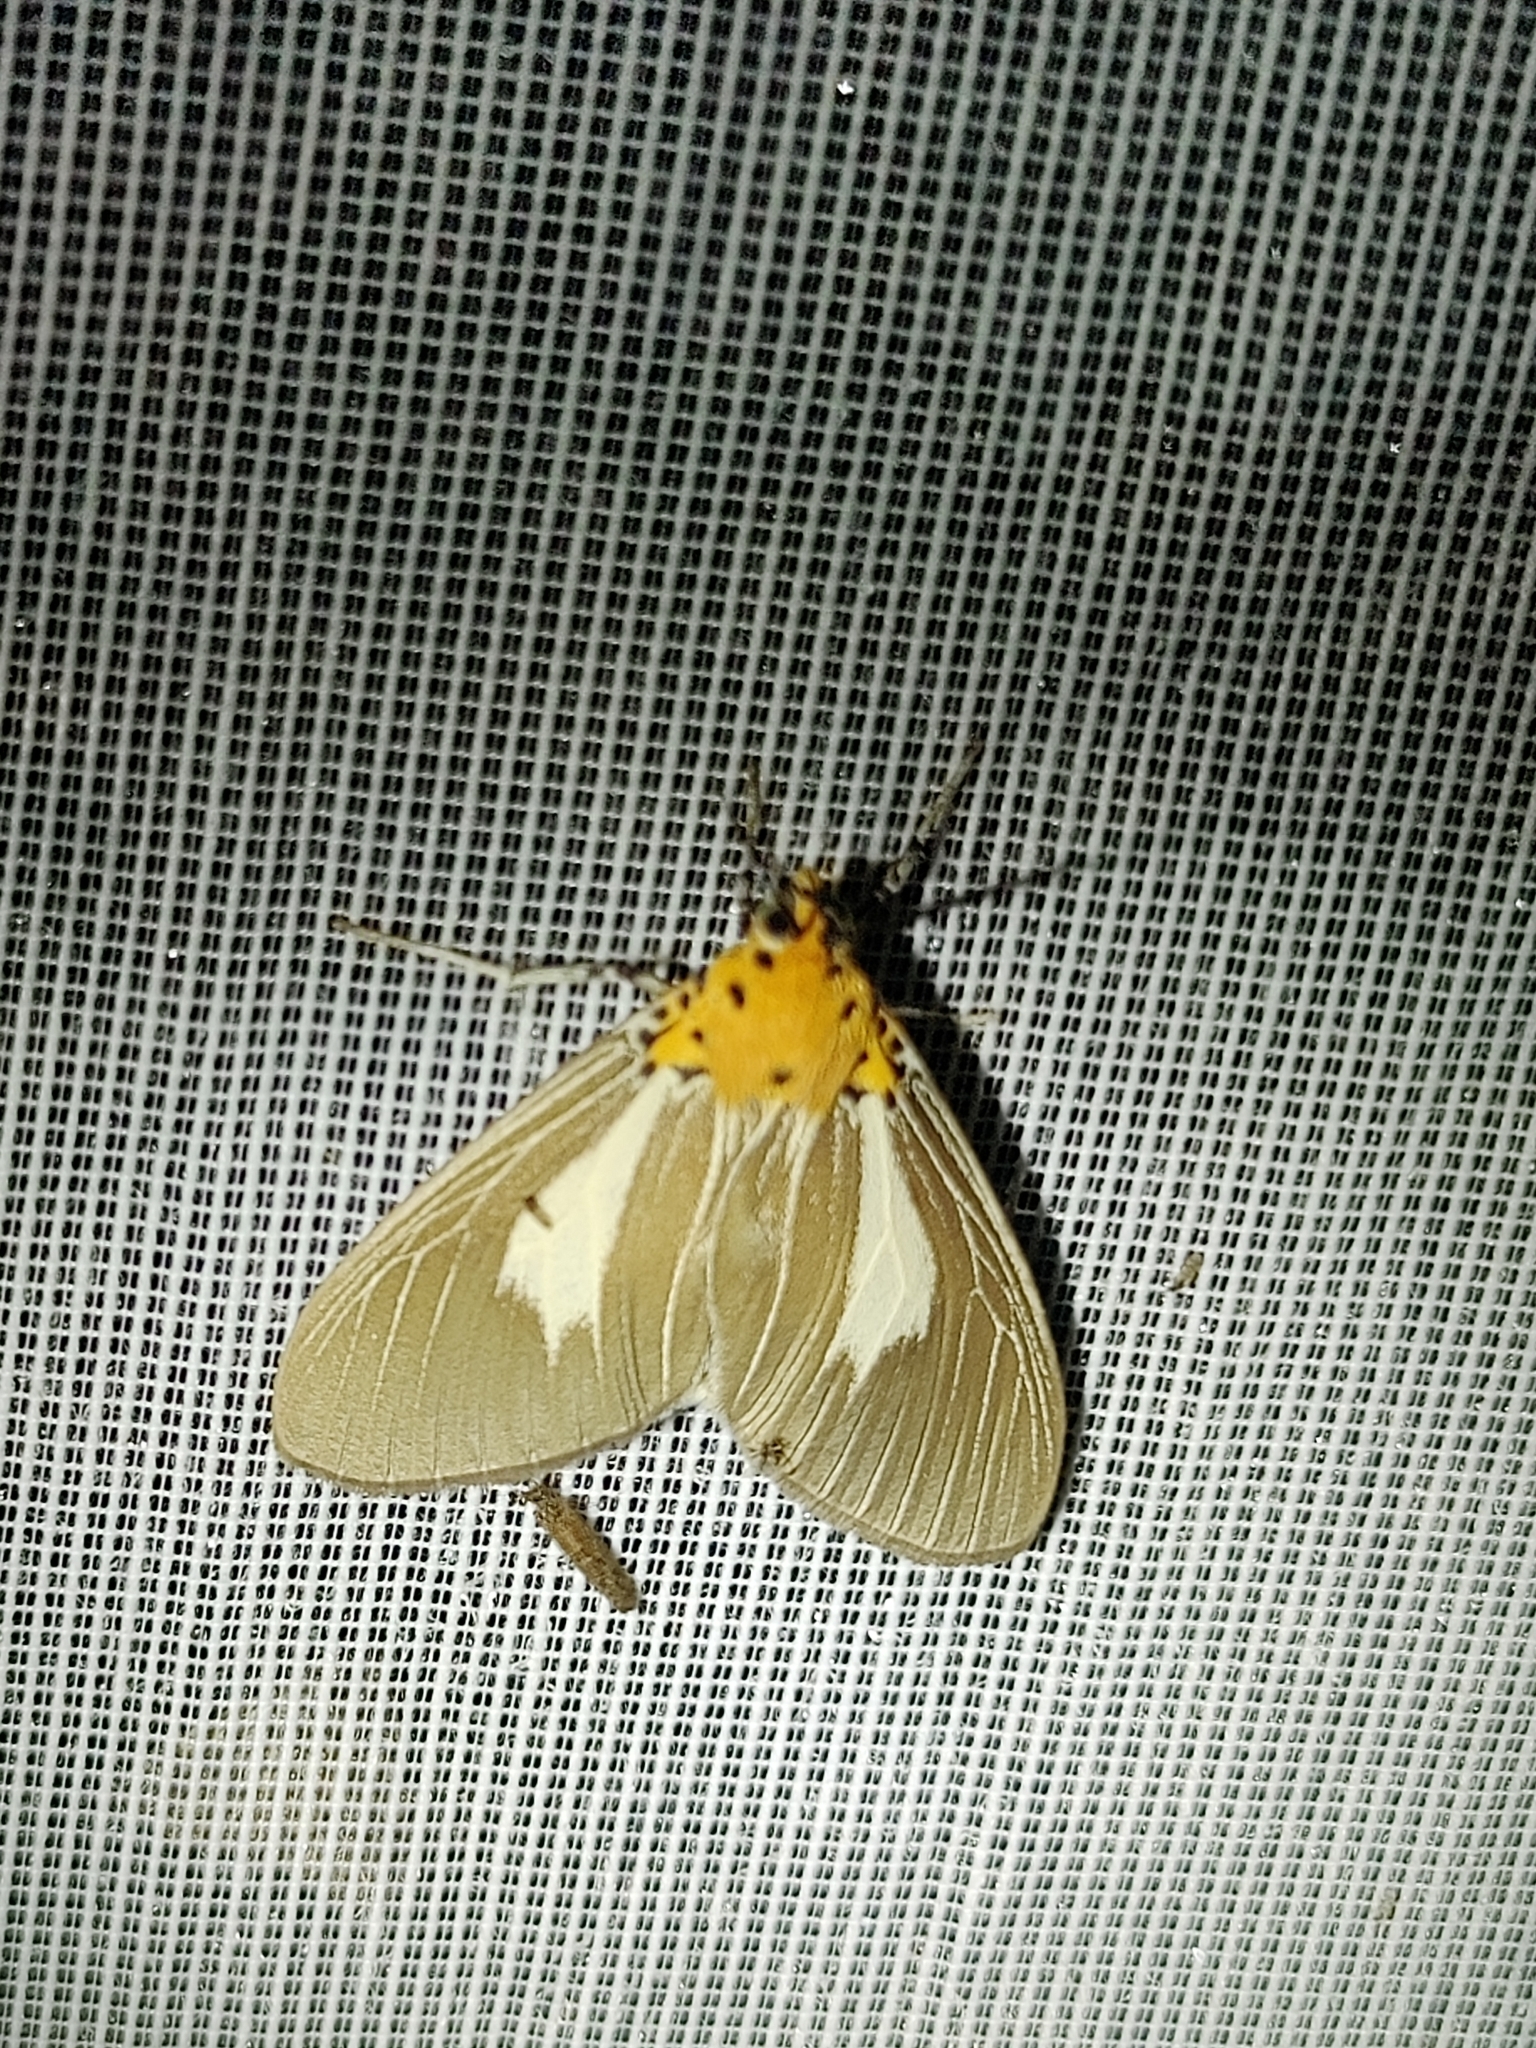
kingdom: Animalia
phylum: Arthropoda
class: Insecta
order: Lepidoptera
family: Erebidae
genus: Asota
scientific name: Asota heliconia
